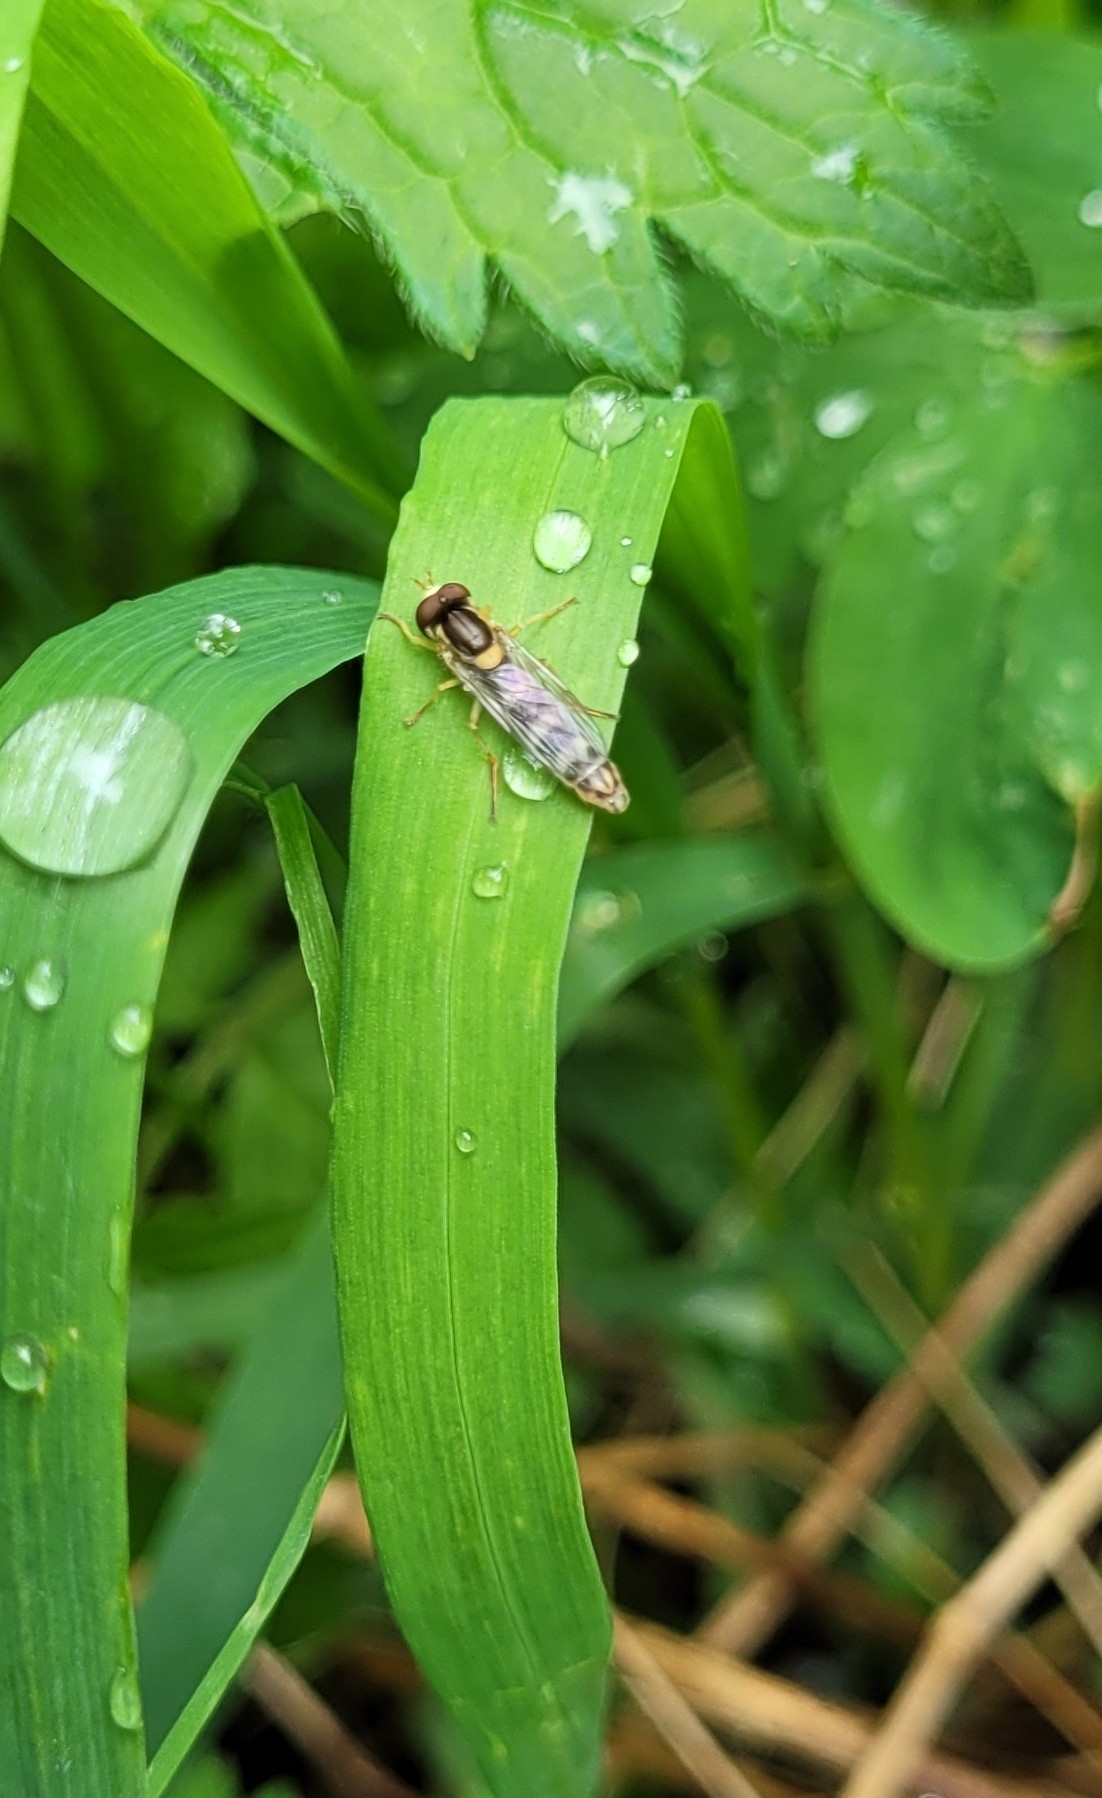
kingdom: Animalia
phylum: Arthropoda
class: Insecta
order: Diptera
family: Syrphidae
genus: Sphaerophoria
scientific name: Sphaerophoria scripta
